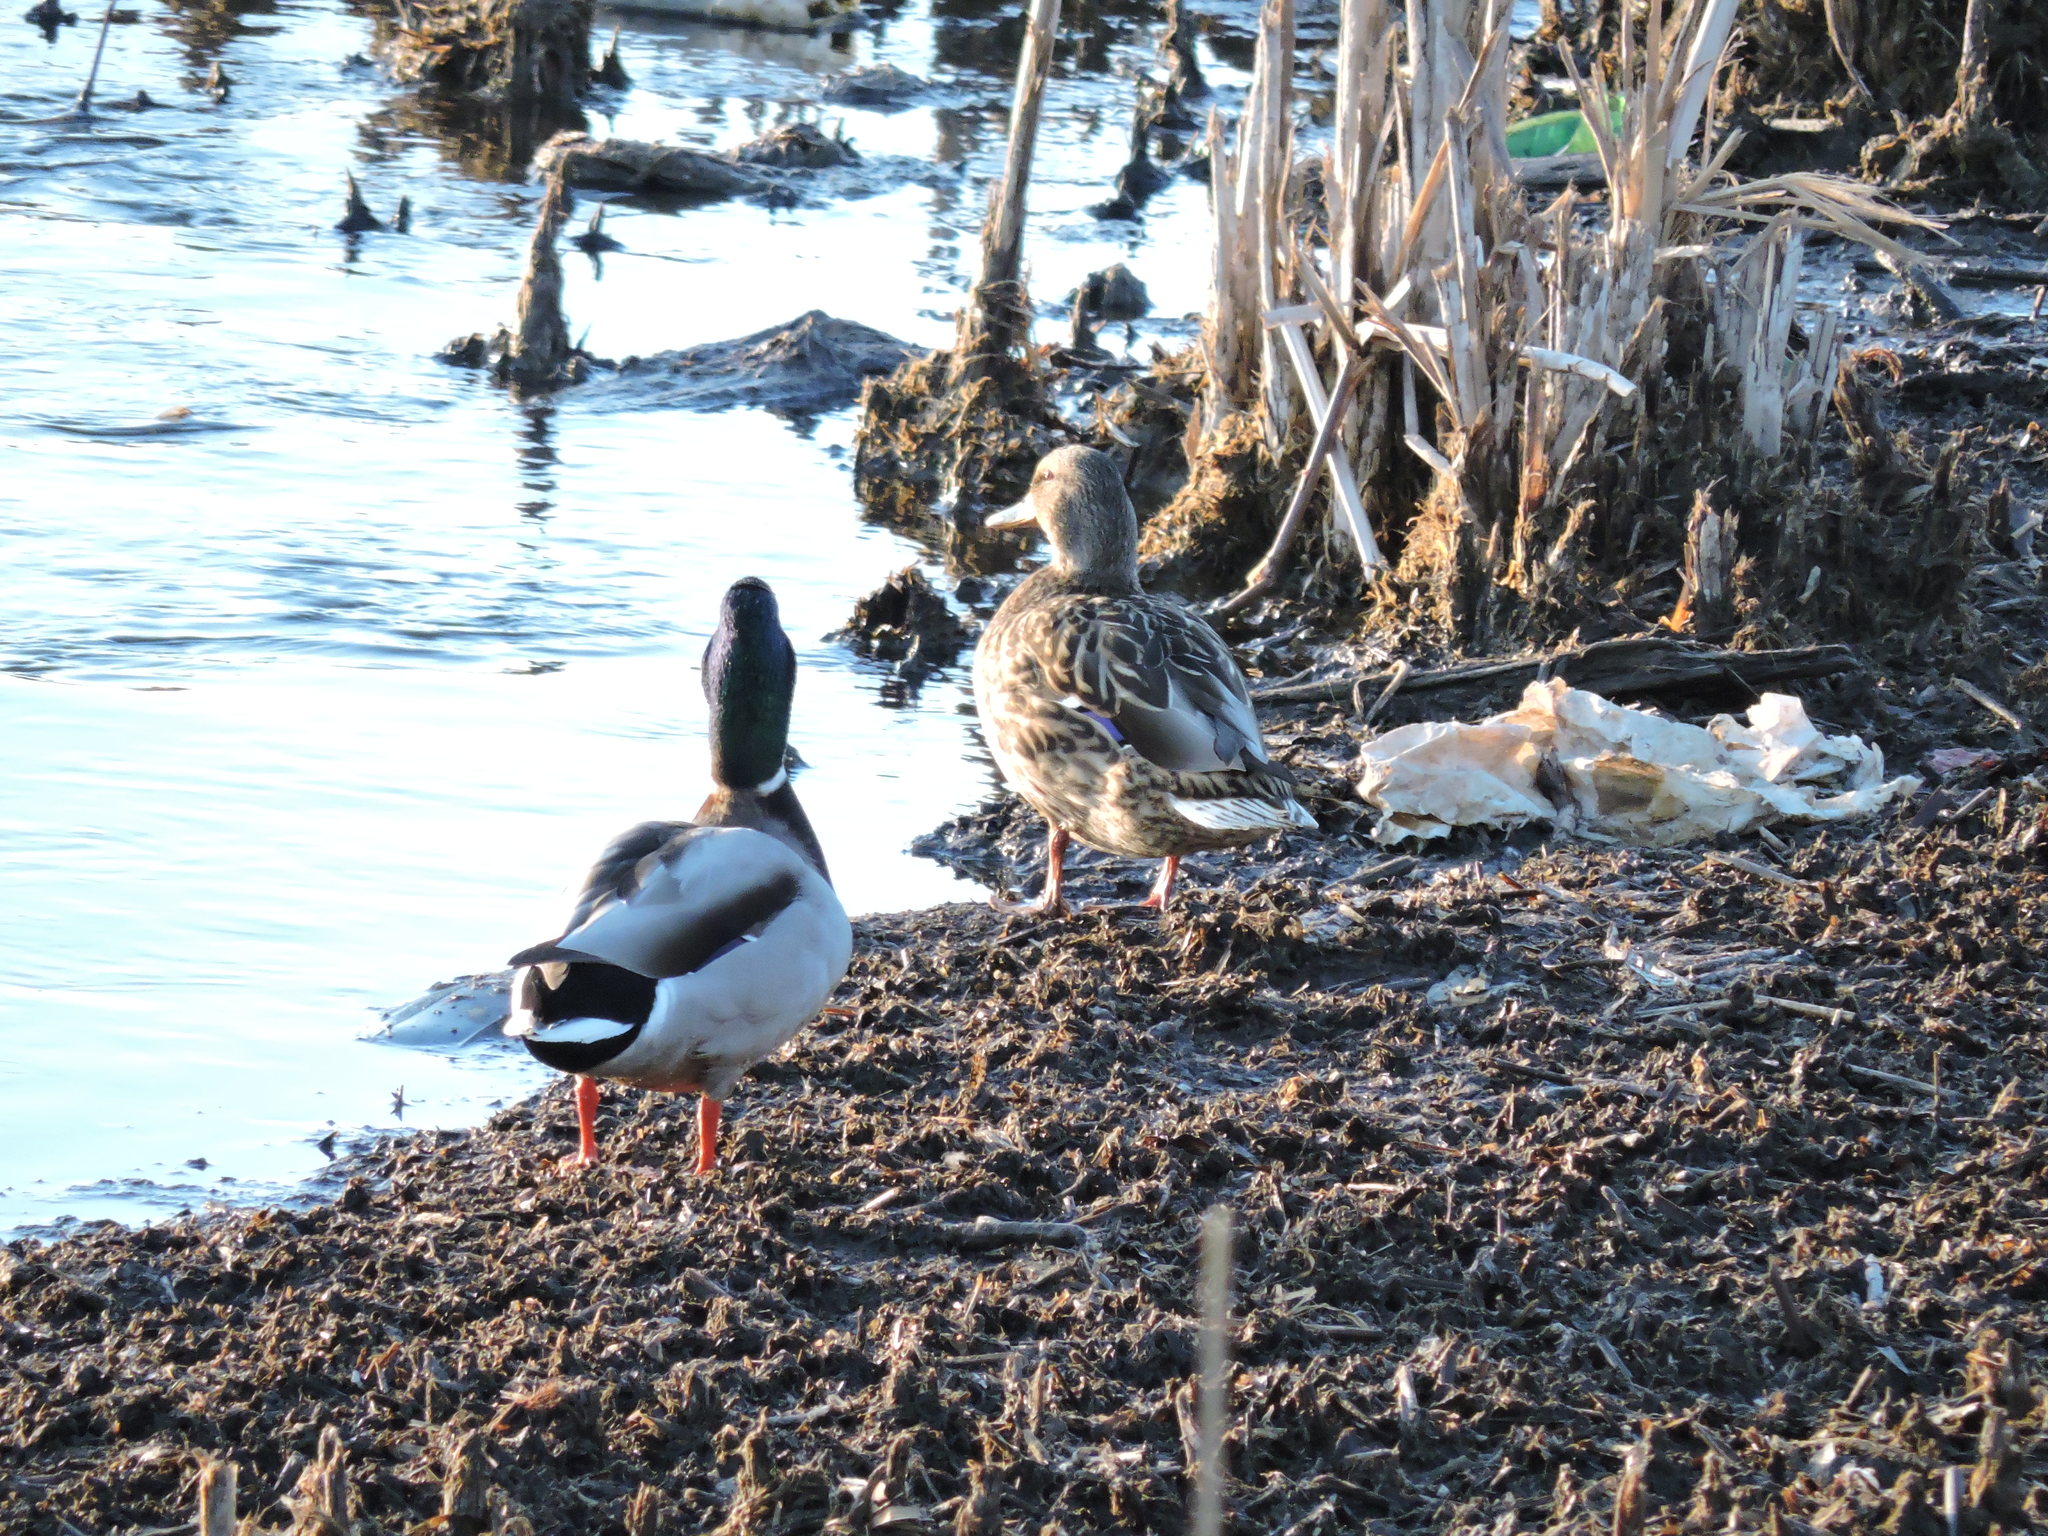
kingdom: Animalia
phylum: Chordata
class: Aves
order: Anseriformes
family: Anatidae
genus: Anas
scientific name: Anas platyrhynchos
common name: Mallard
